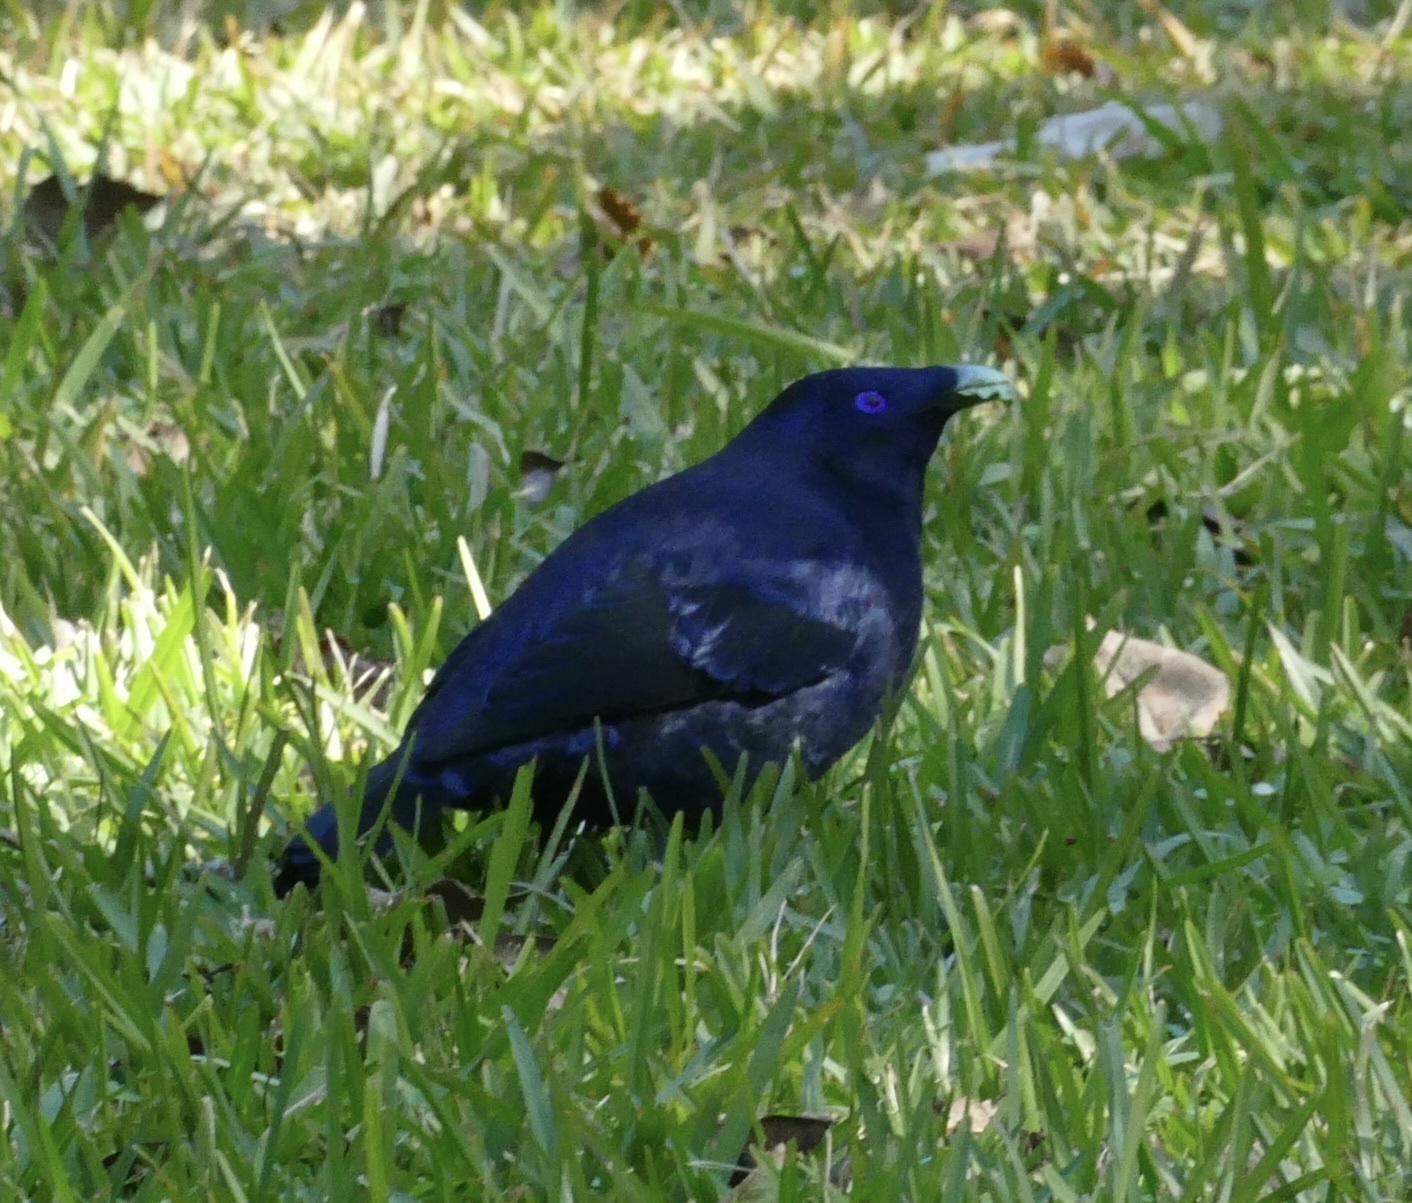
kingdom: Animalia
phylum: Chordata
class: Aves
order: Passeriformes
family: Ptilonorhynchidae
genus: Ptilonorhynchus
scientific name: Ptilonorhynchus violaceus
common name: Satin bowerbird
